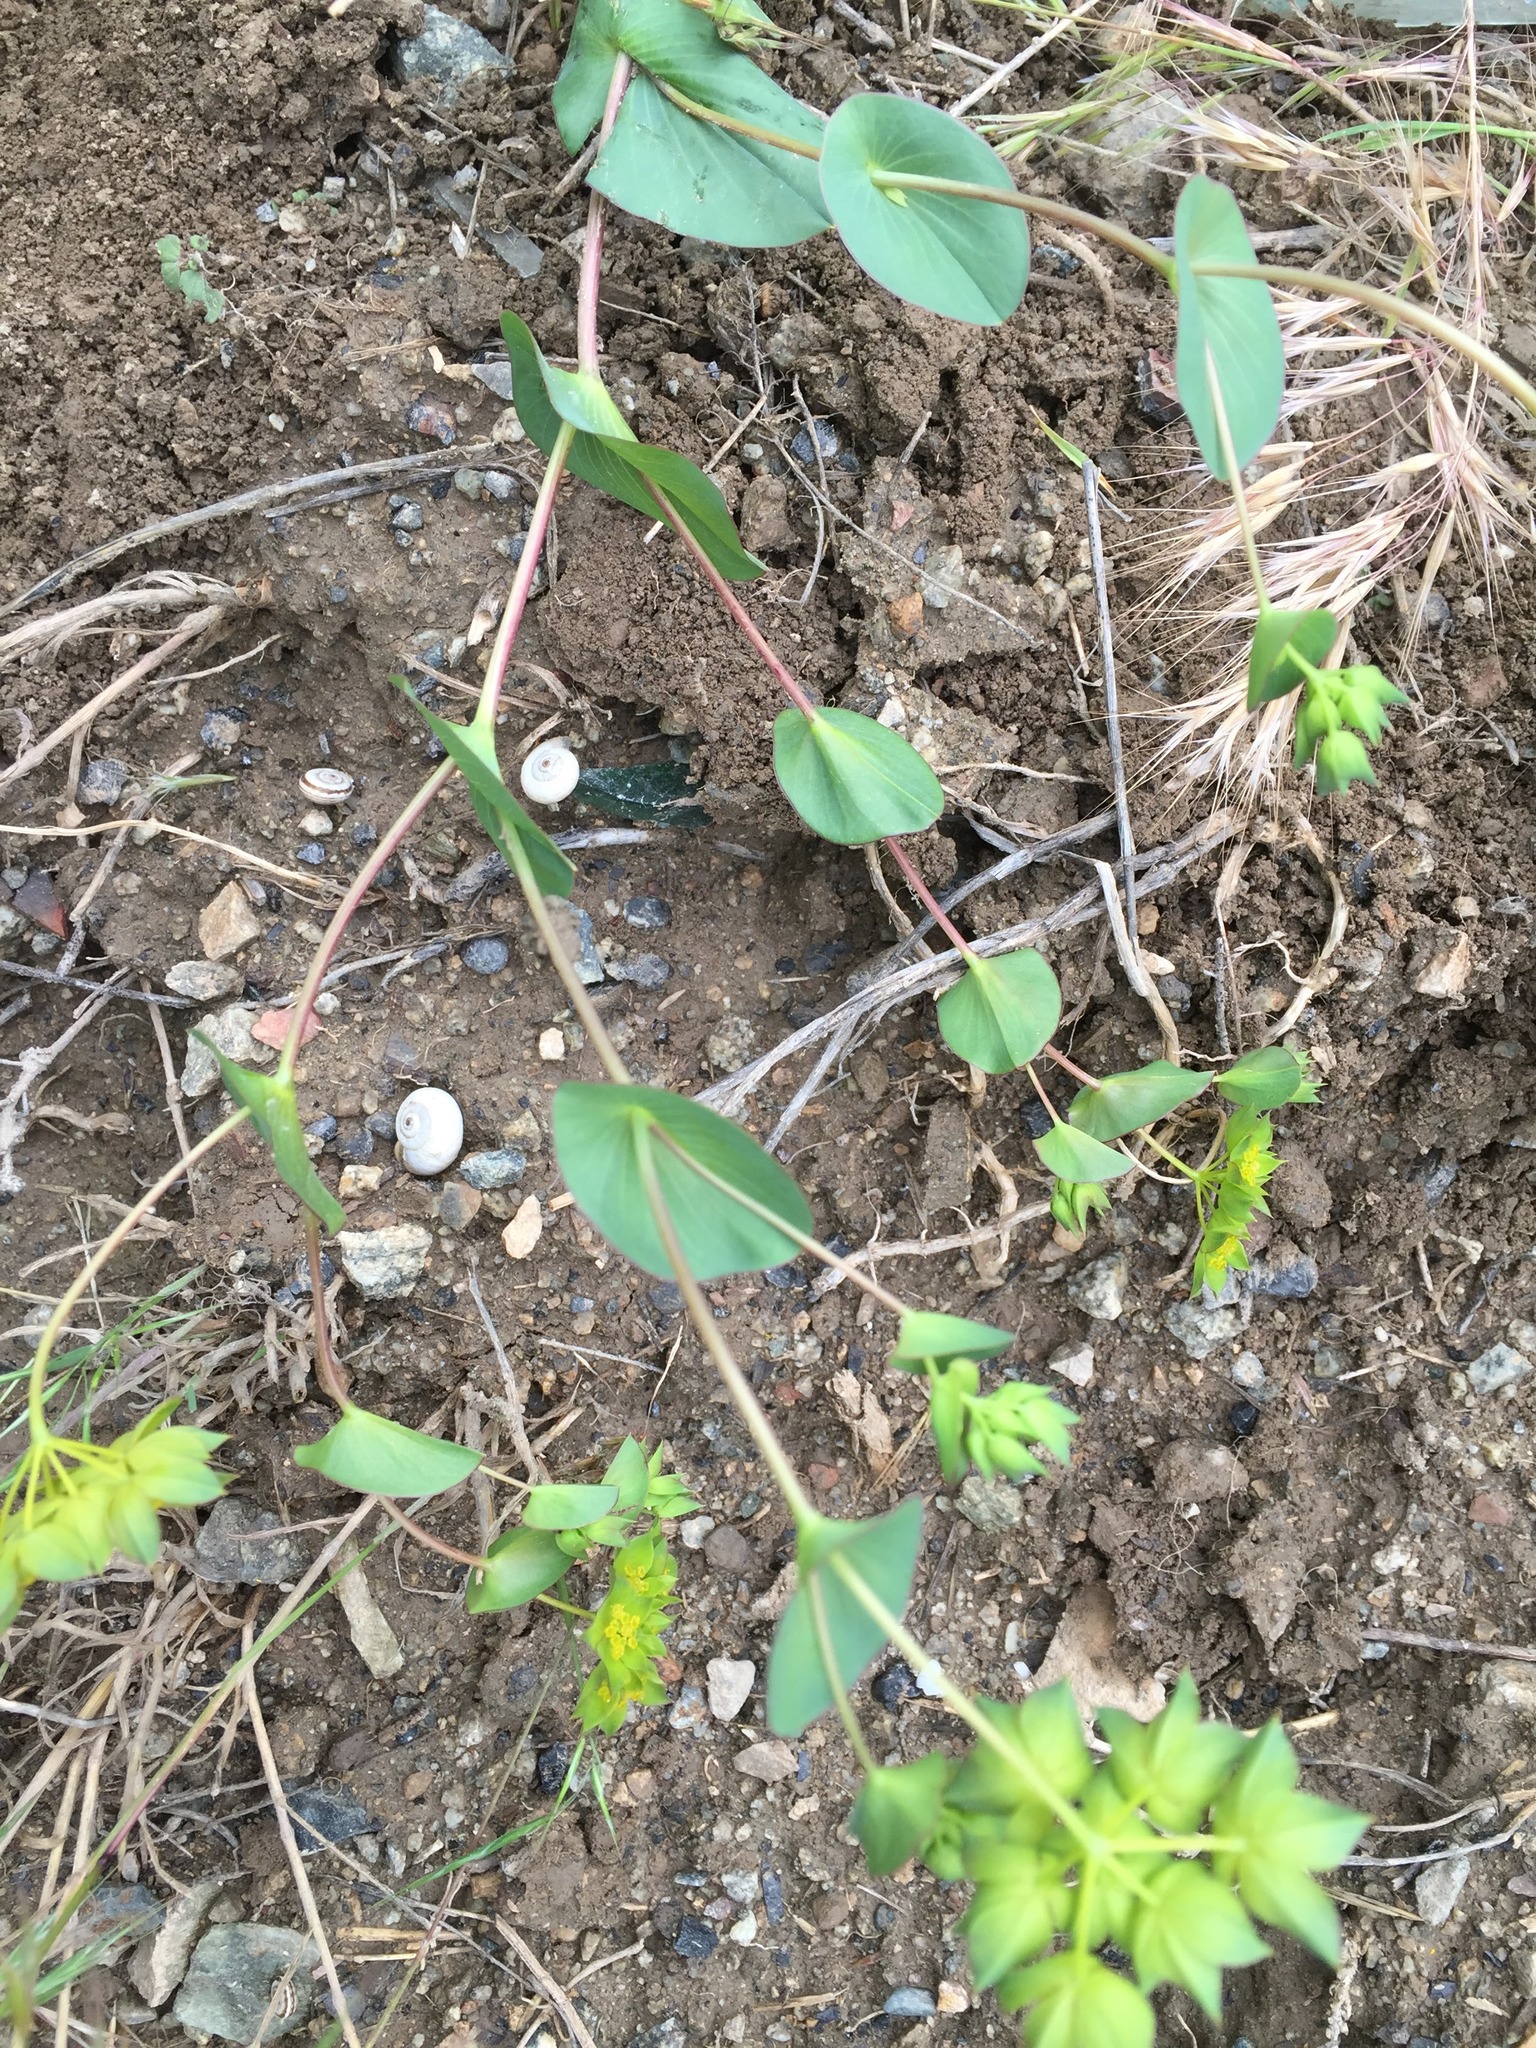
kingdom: Plantae
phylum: Tracheophyta
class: Magnoliopsida
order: Apiales
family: Apiaceae
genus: Bupleurum
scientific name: Bupleurum rotundifolium
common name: Thorow-wax
